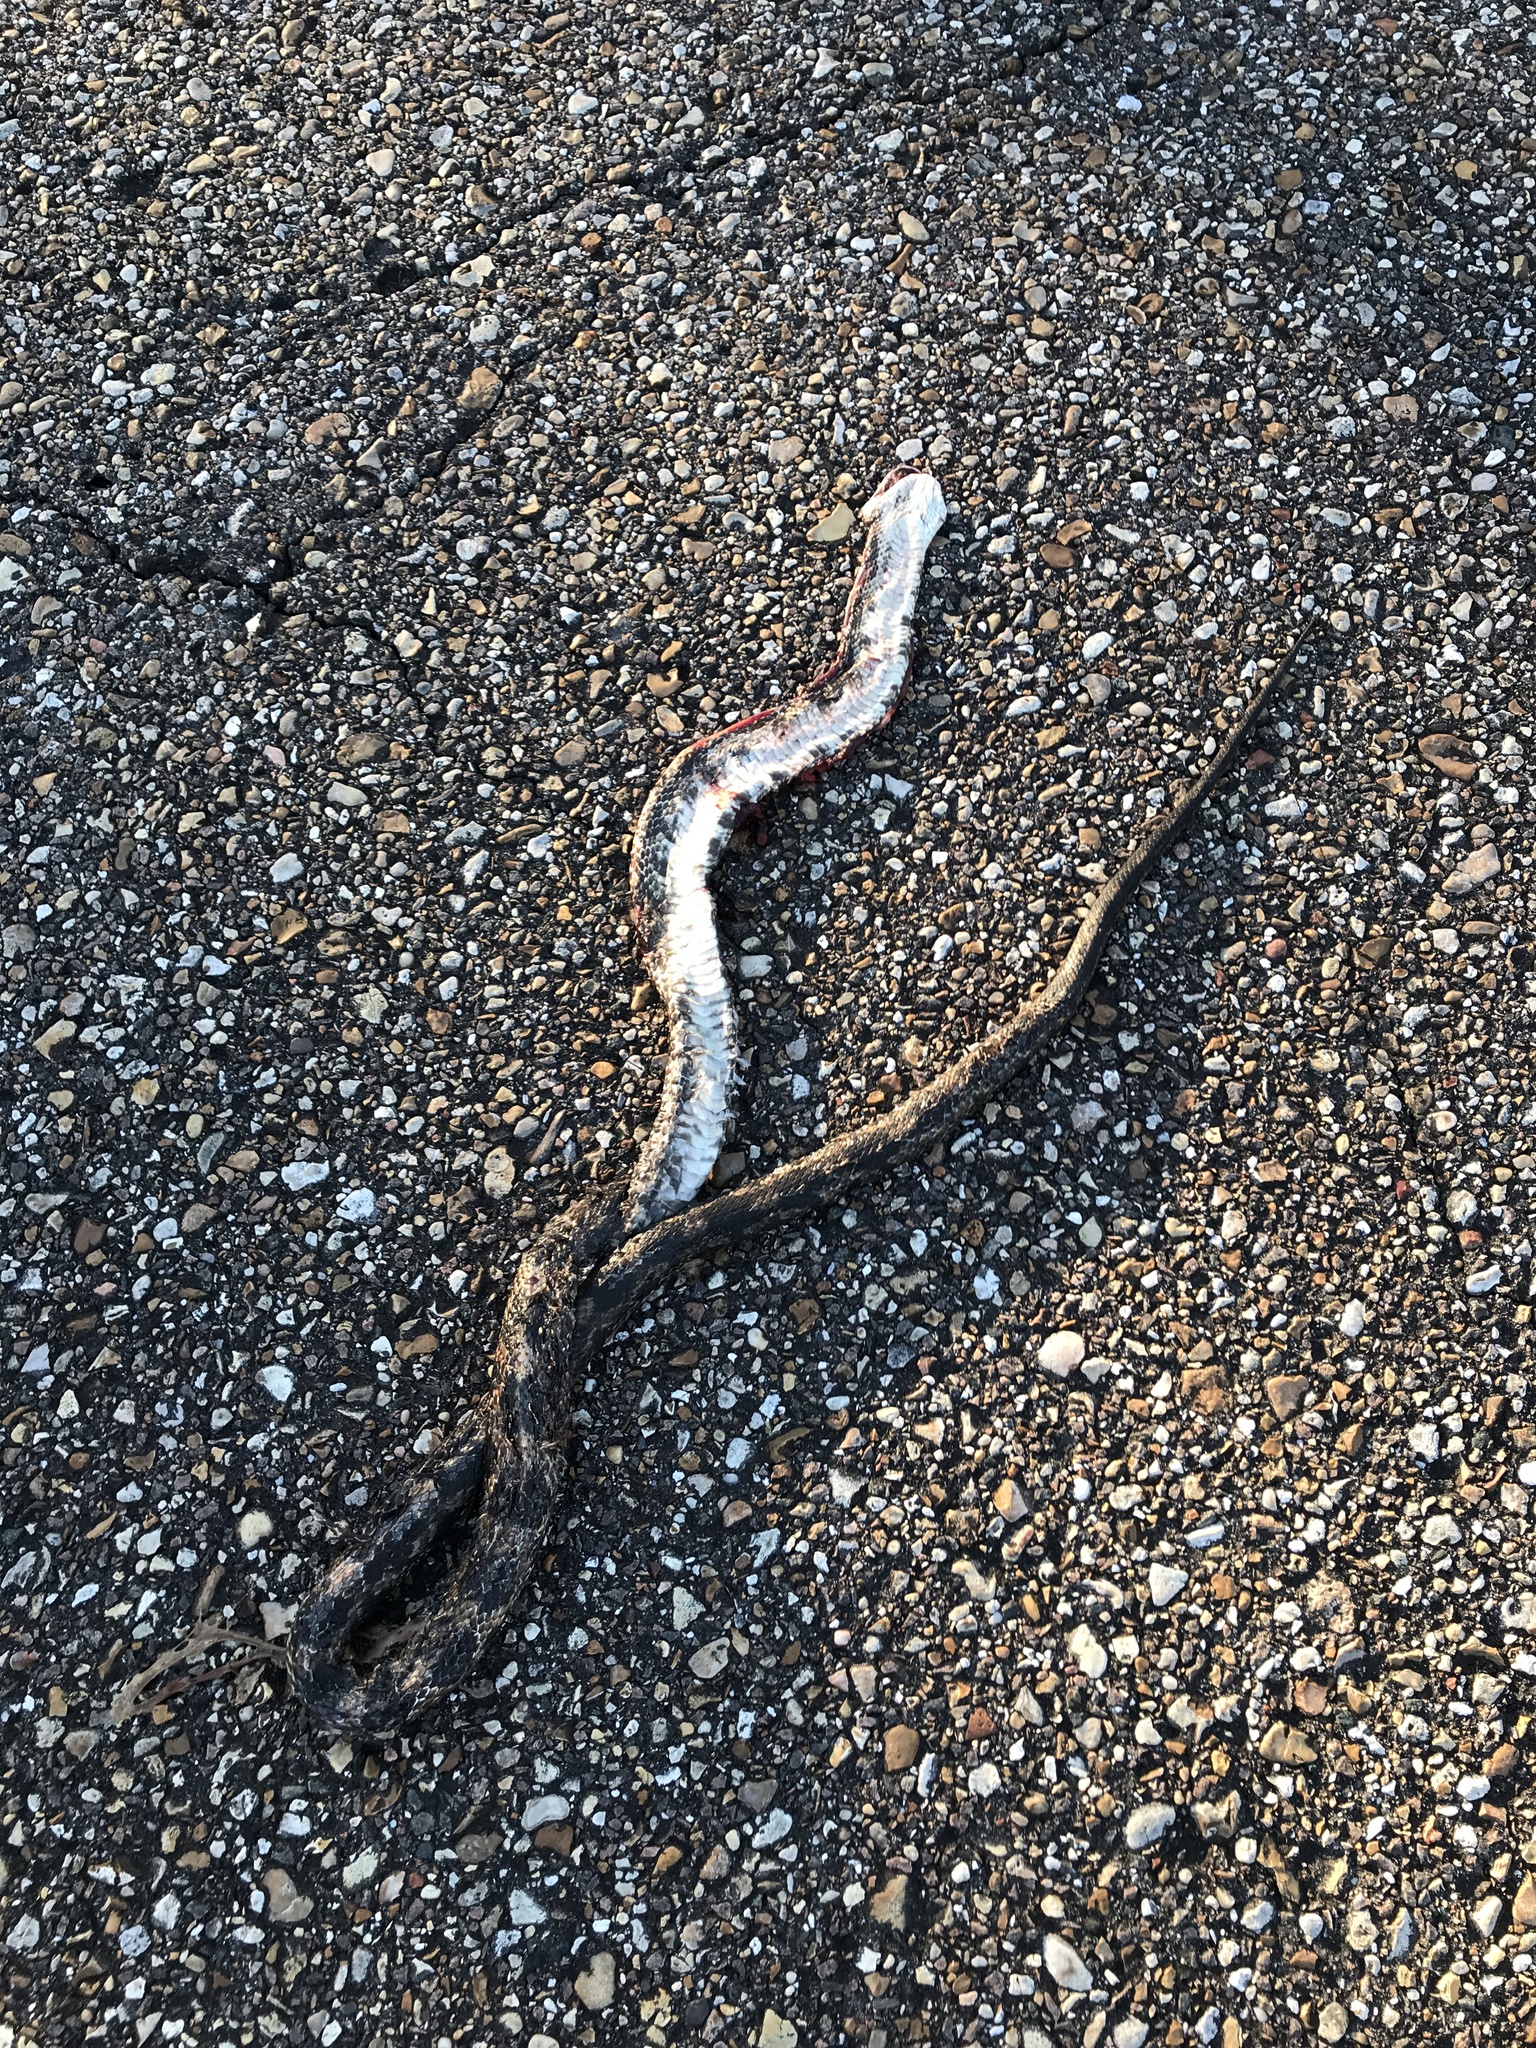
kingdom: Animalia
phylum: Chordata
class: Squamata
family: Colubridae
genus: Pantherophis
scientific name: Pantherophis spiloides
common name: Gray rat snake
